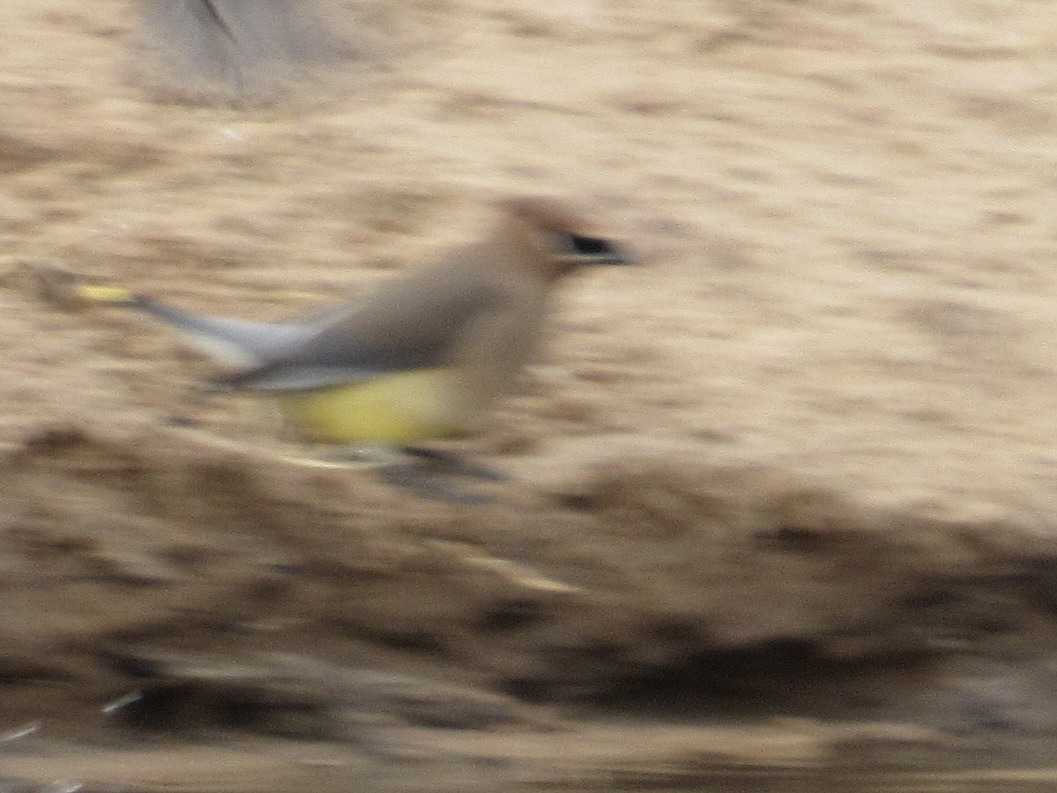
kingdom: Animalia
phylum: Chordata
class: Aves
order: Passeriformes
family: Bombycillidae
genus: Bombycilla
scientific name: Bombycilla cedrorum
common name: Cedar waxwing
